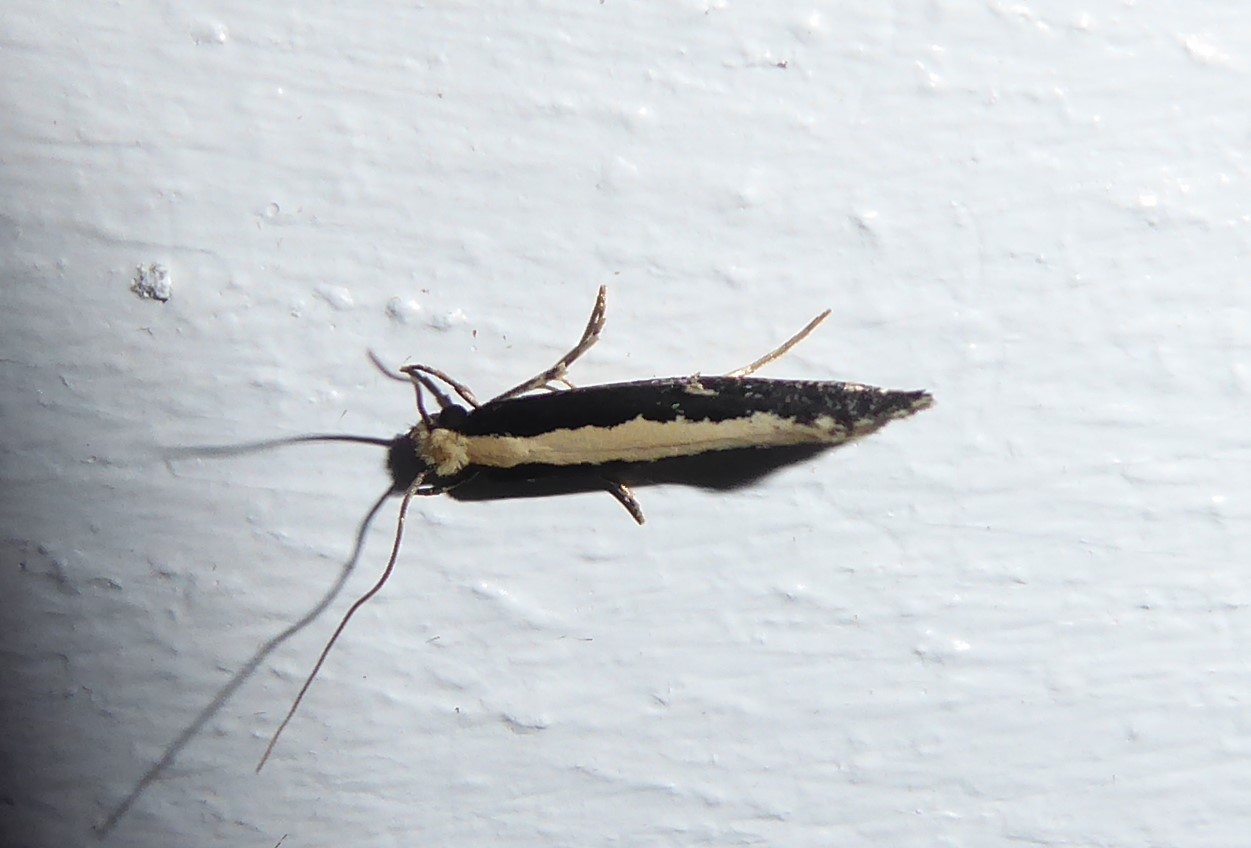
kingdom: Animalia
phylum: Arthropoda
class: Insecta
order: Lepidoptera
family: Tineidae
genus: Monopis
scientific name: Monopis ethelella
